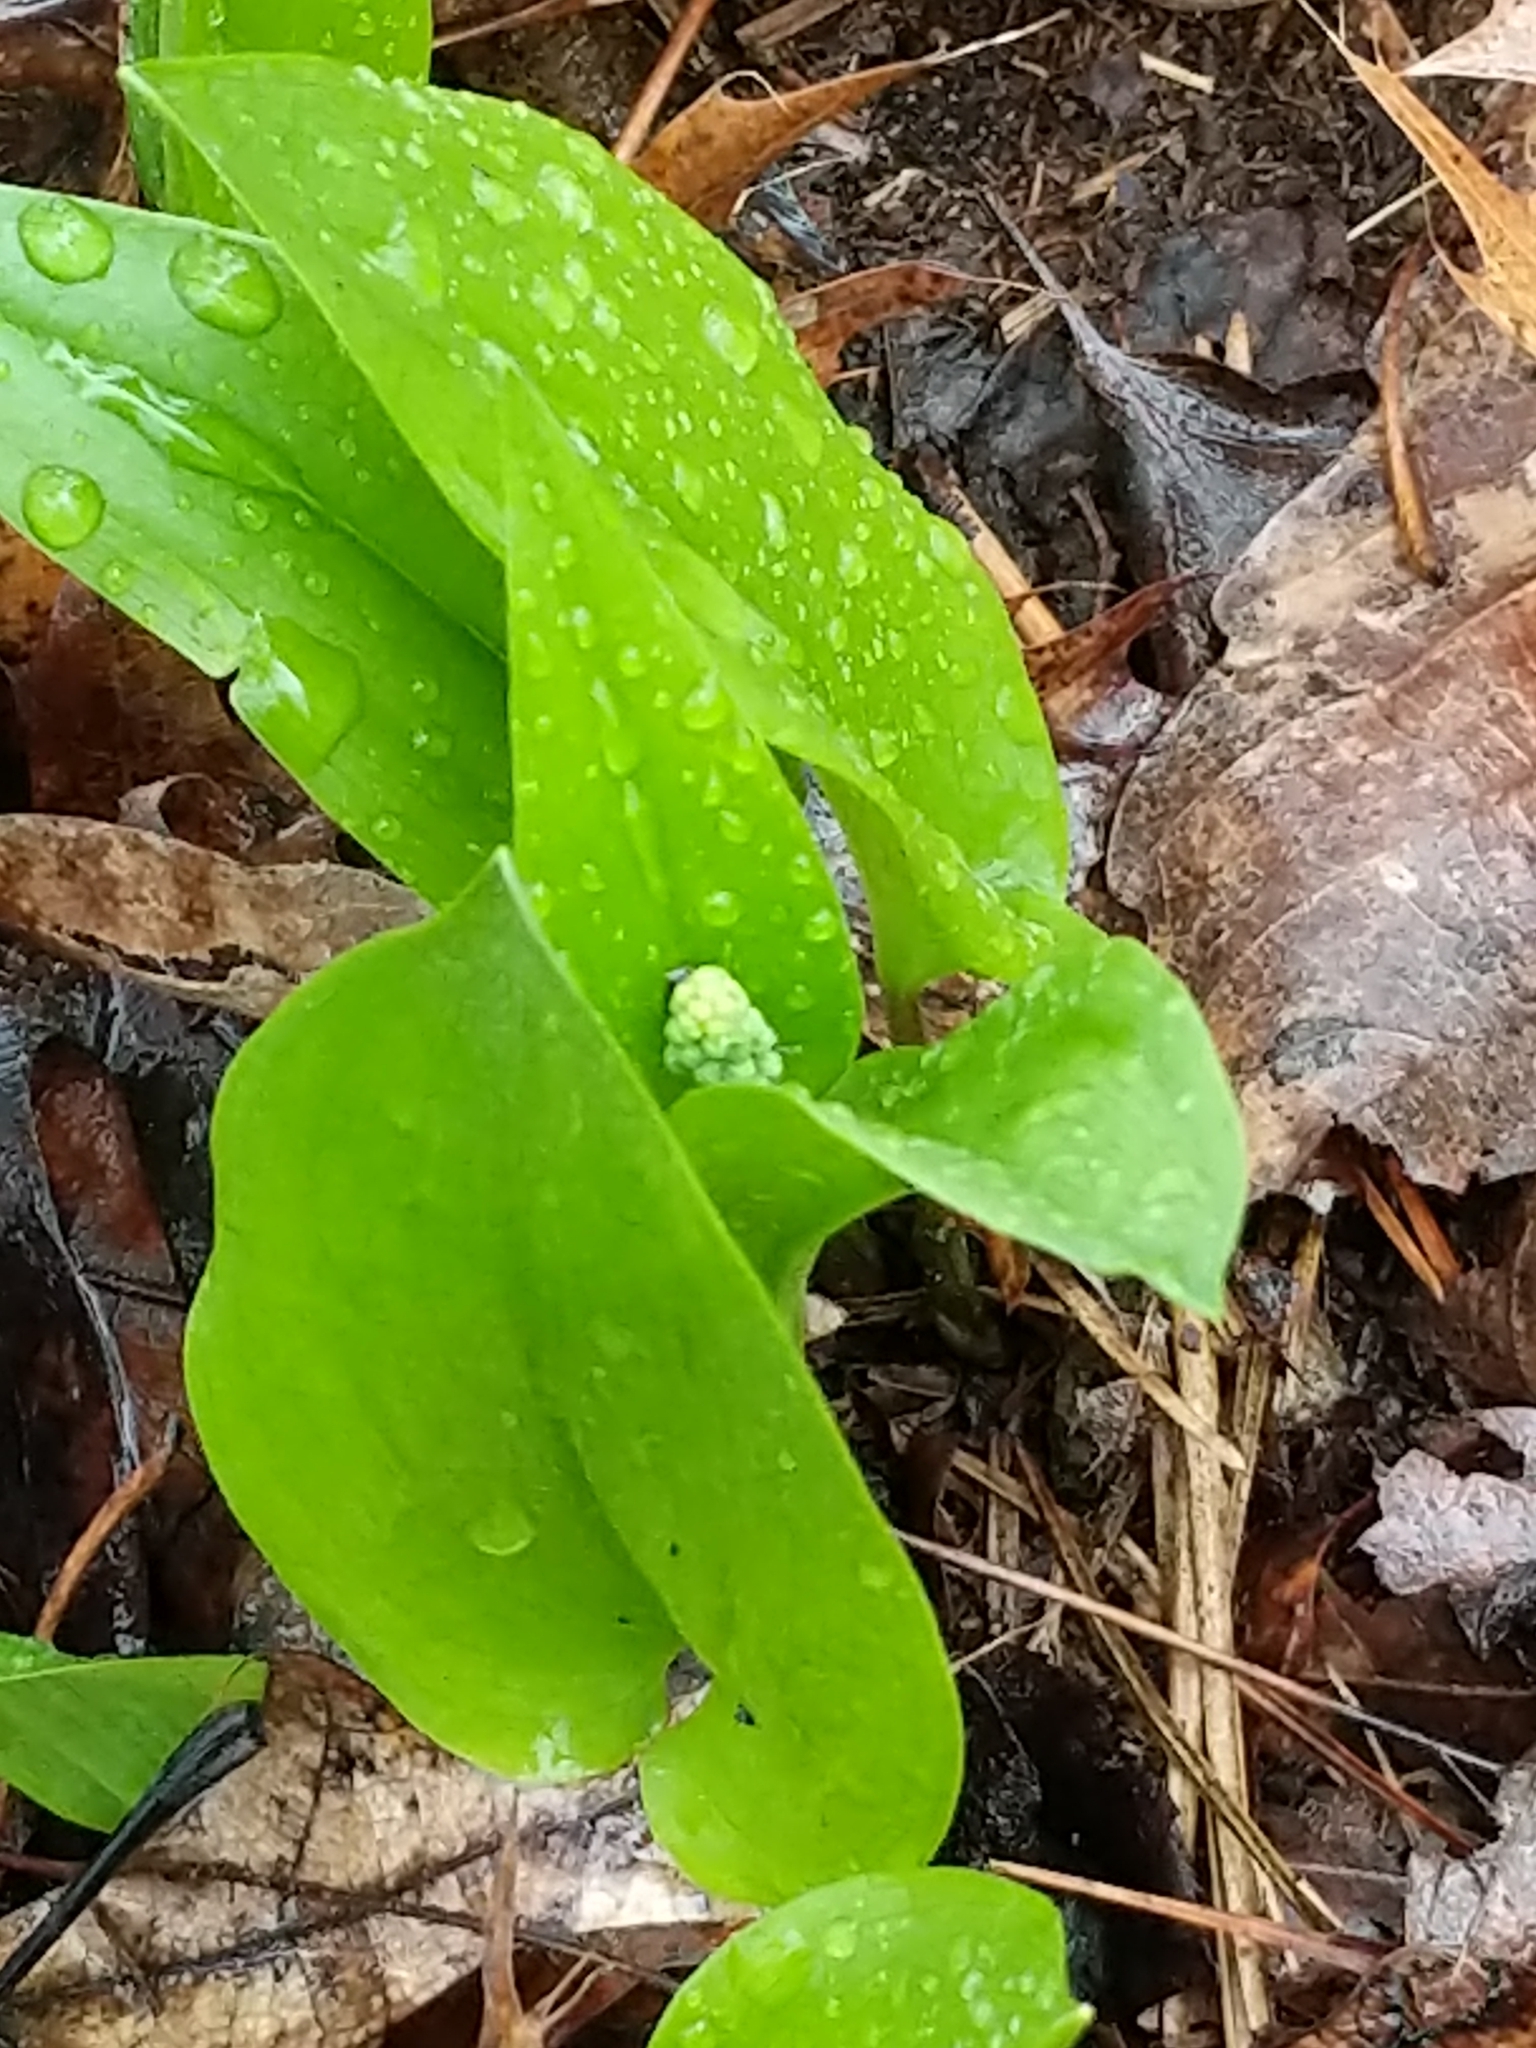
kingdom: Plantae
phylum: Tracheophyta
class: Liliopsida
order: Asparagales
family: Asparagaceae
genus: Maianthemum
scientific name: Maianthemum canadense
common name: False lily-of-the-valley
